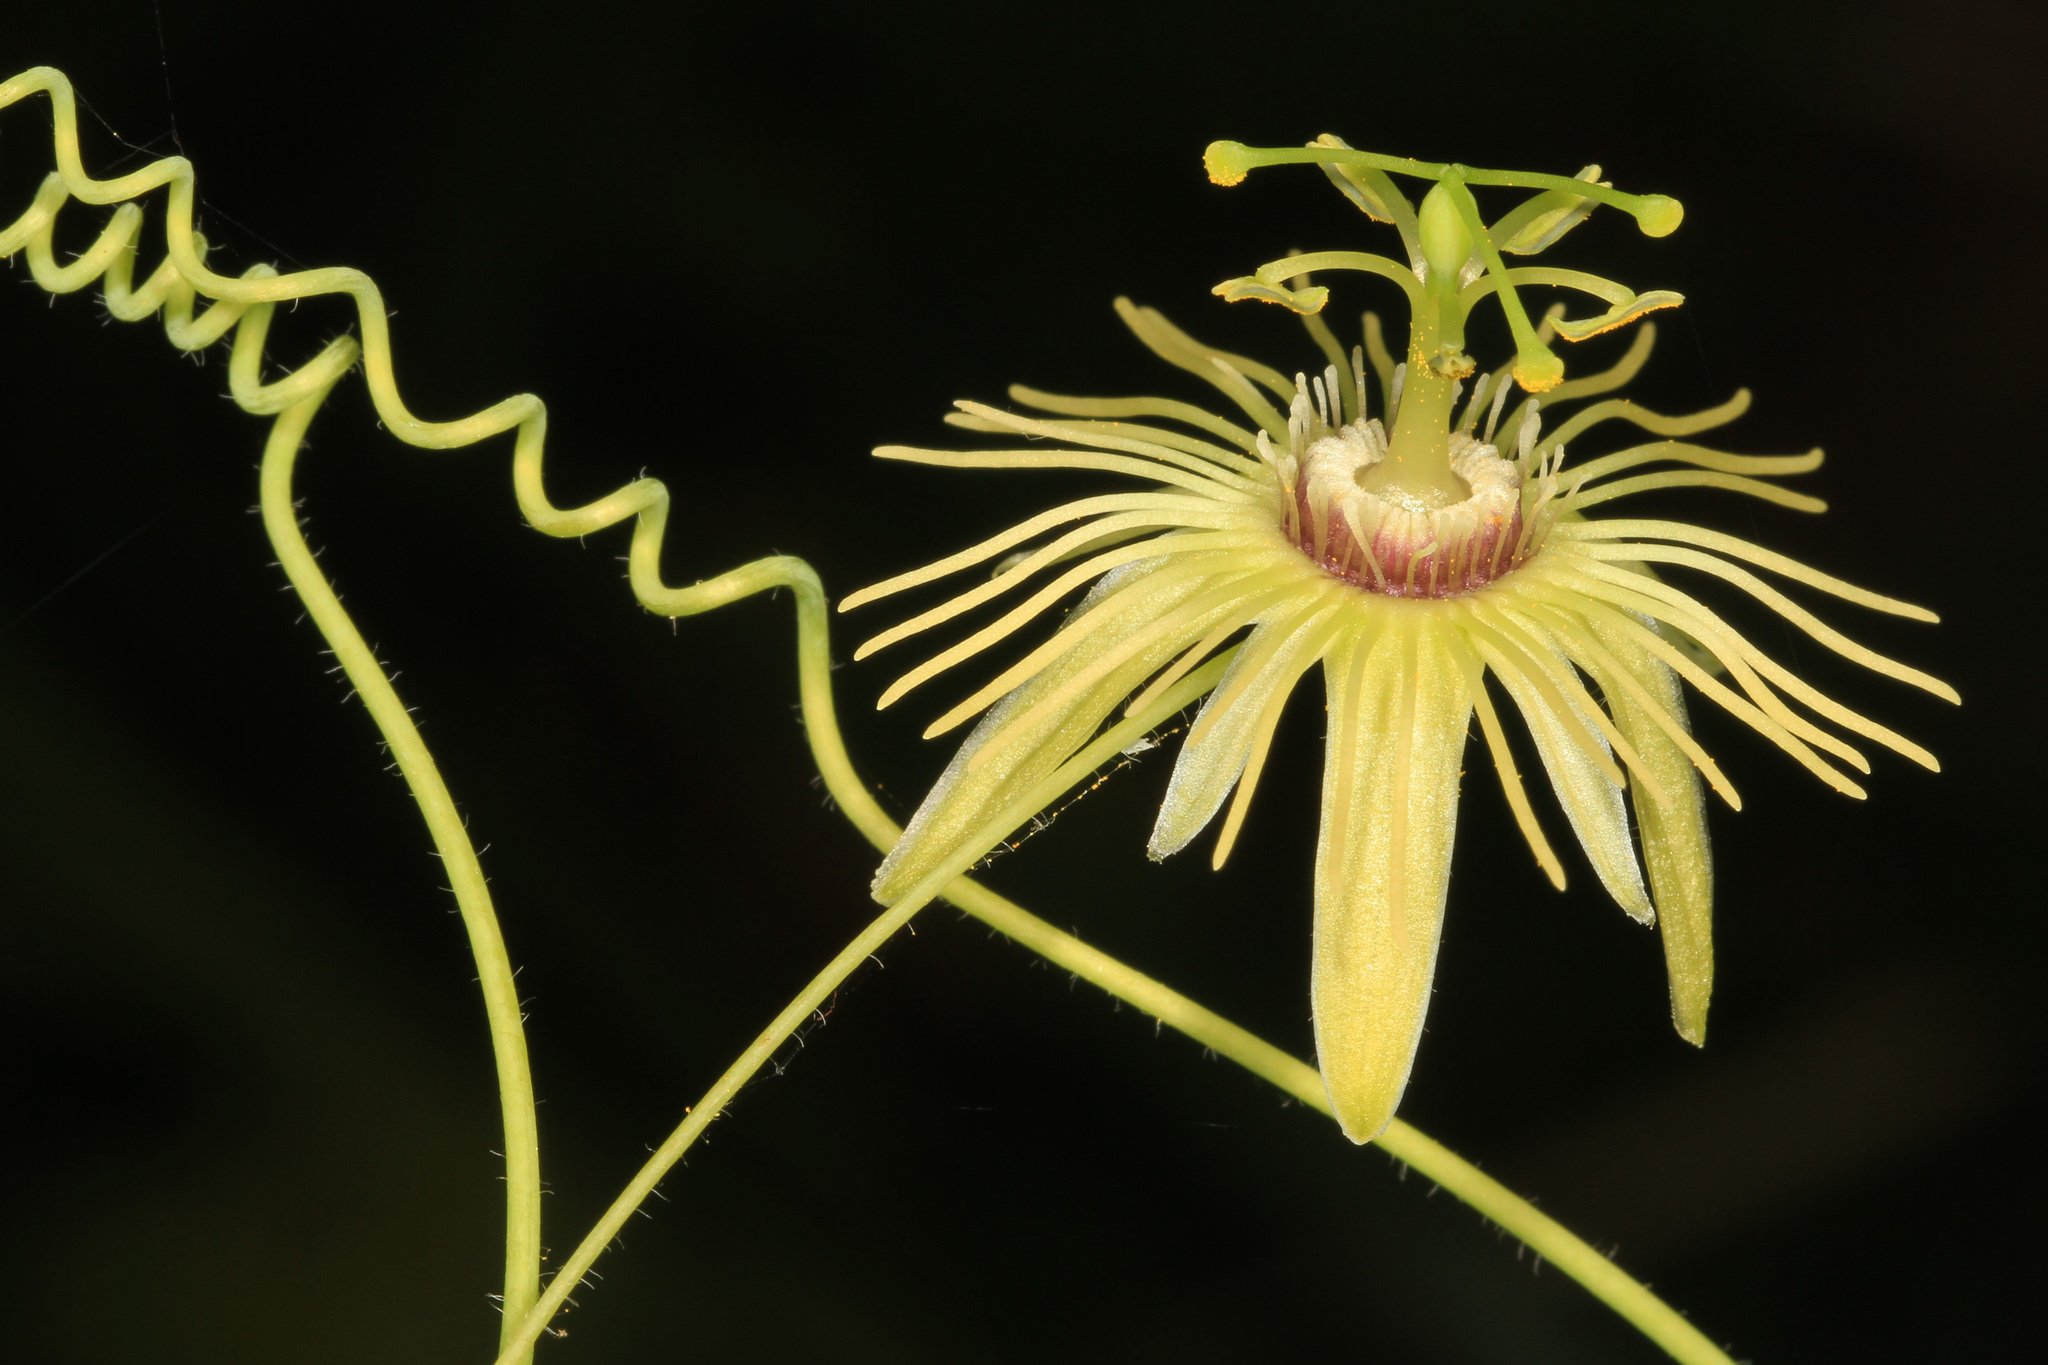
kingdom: Plantae
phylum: Tracheophyta
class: Magnoliopsida
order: Malpighiales
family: Passifloraceae
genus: Passiflora
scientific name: Passiflora lutea
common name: Yellow passionflower
